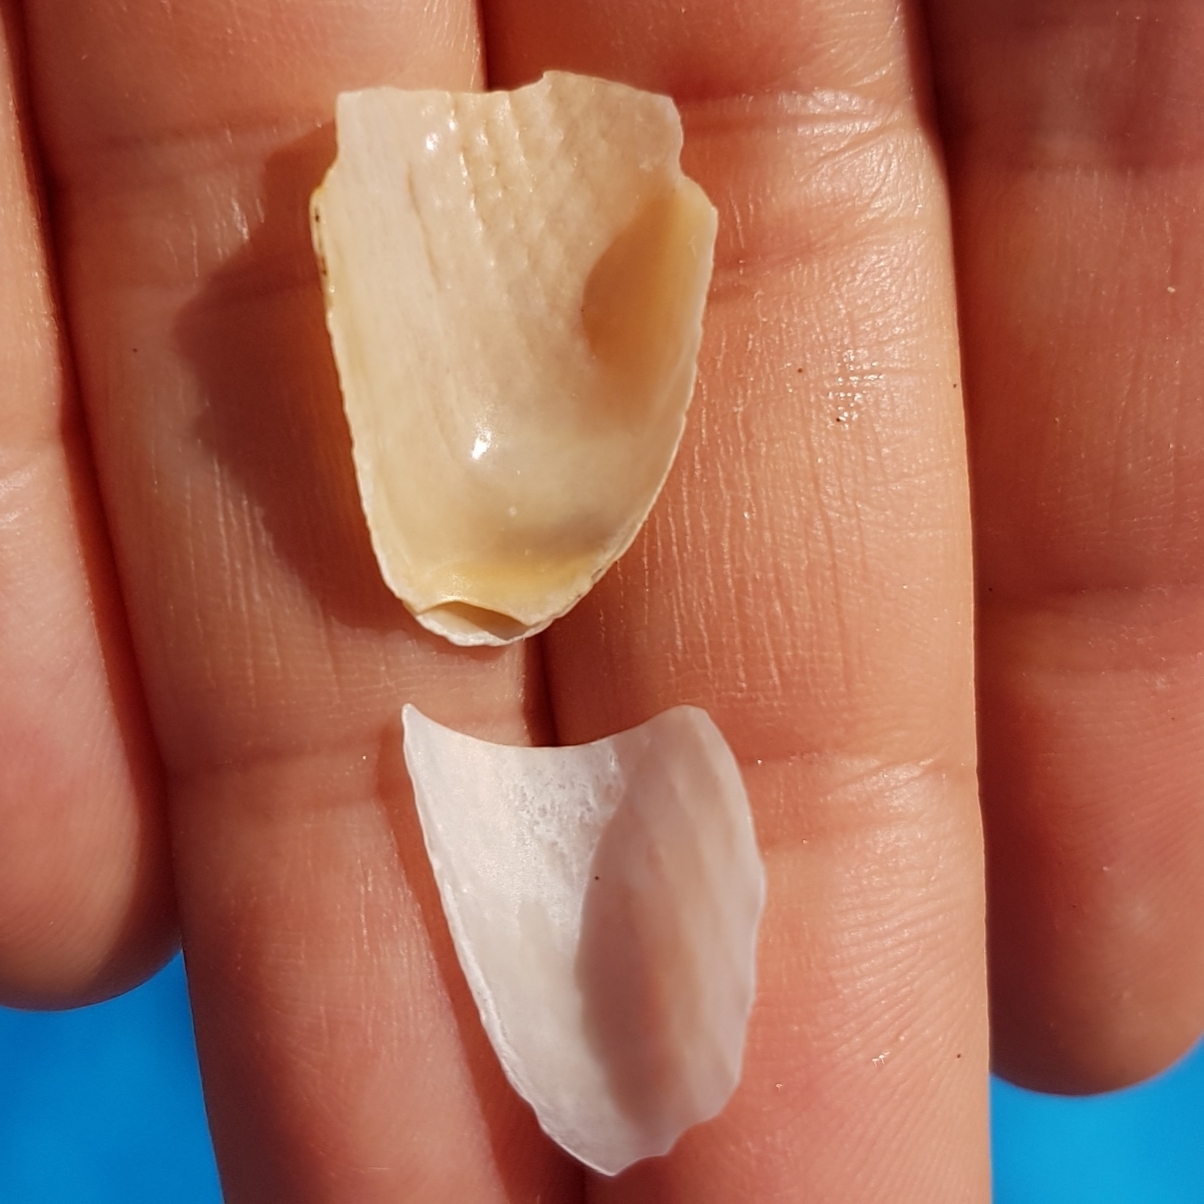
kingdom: Animalia
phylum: Mollusca
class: Bivalvia
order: Myida
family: Pholadidae
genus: Barnea
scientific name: Barnea candida
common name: White piddock
